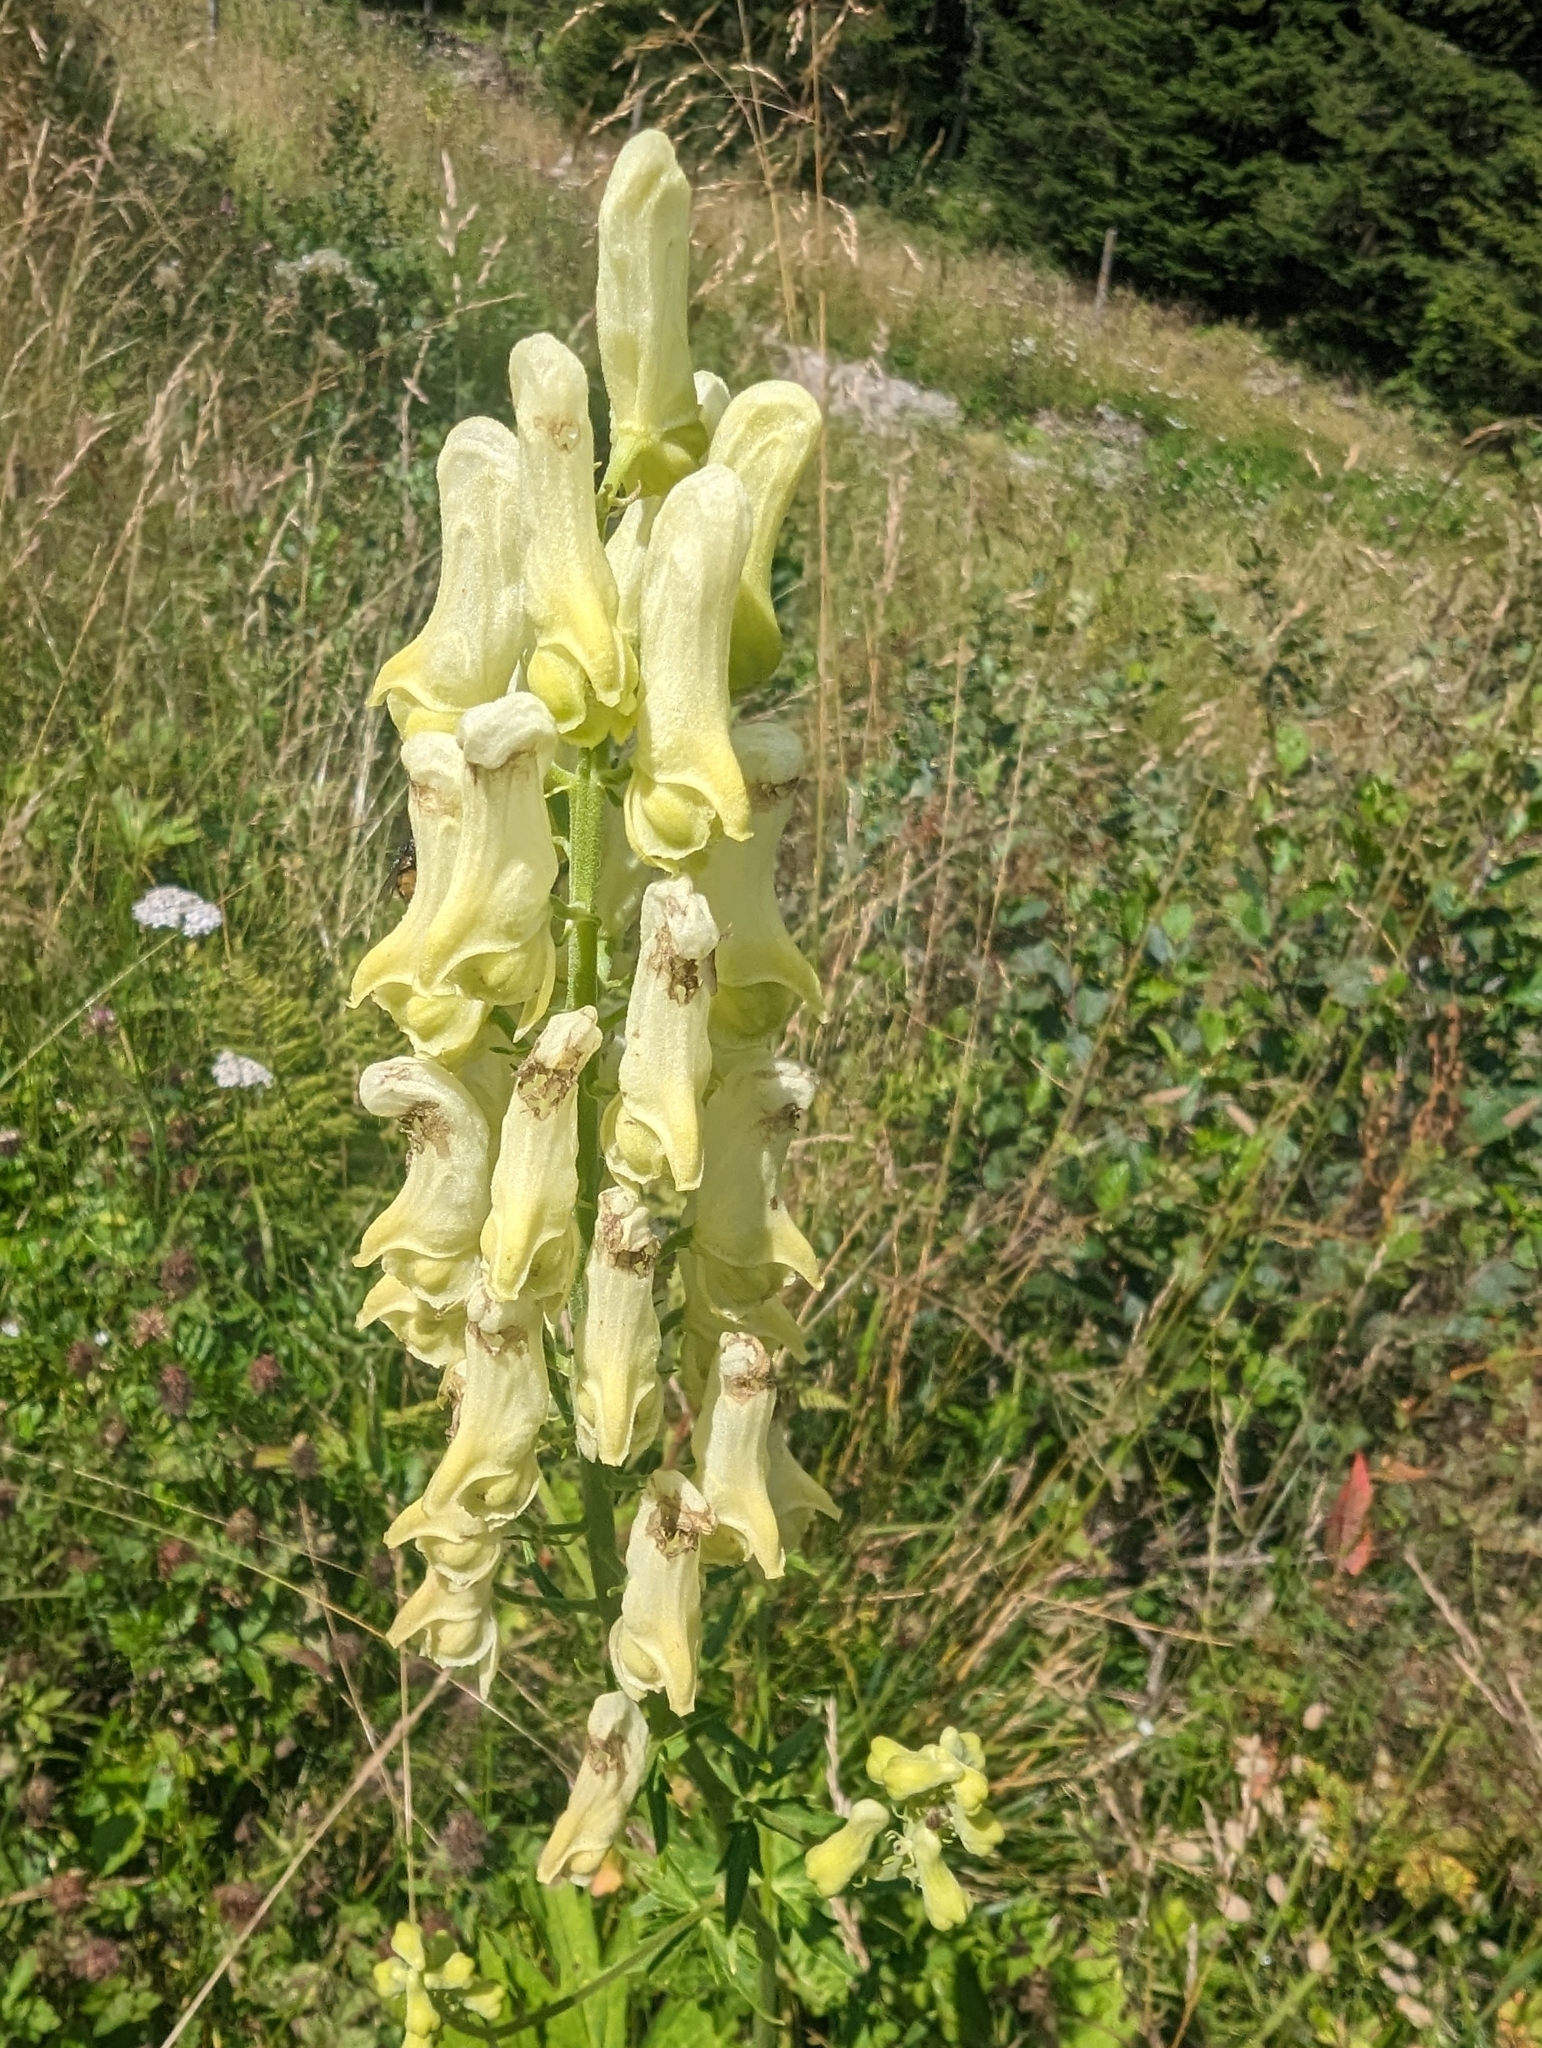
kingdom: Plantae
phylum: Tracheophyta
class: Magnoliopsida
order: Ranunculales
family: Ranunculaceae
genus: Aconitum
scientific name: Aconitum lycoctonum
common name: Wolf's-bane
